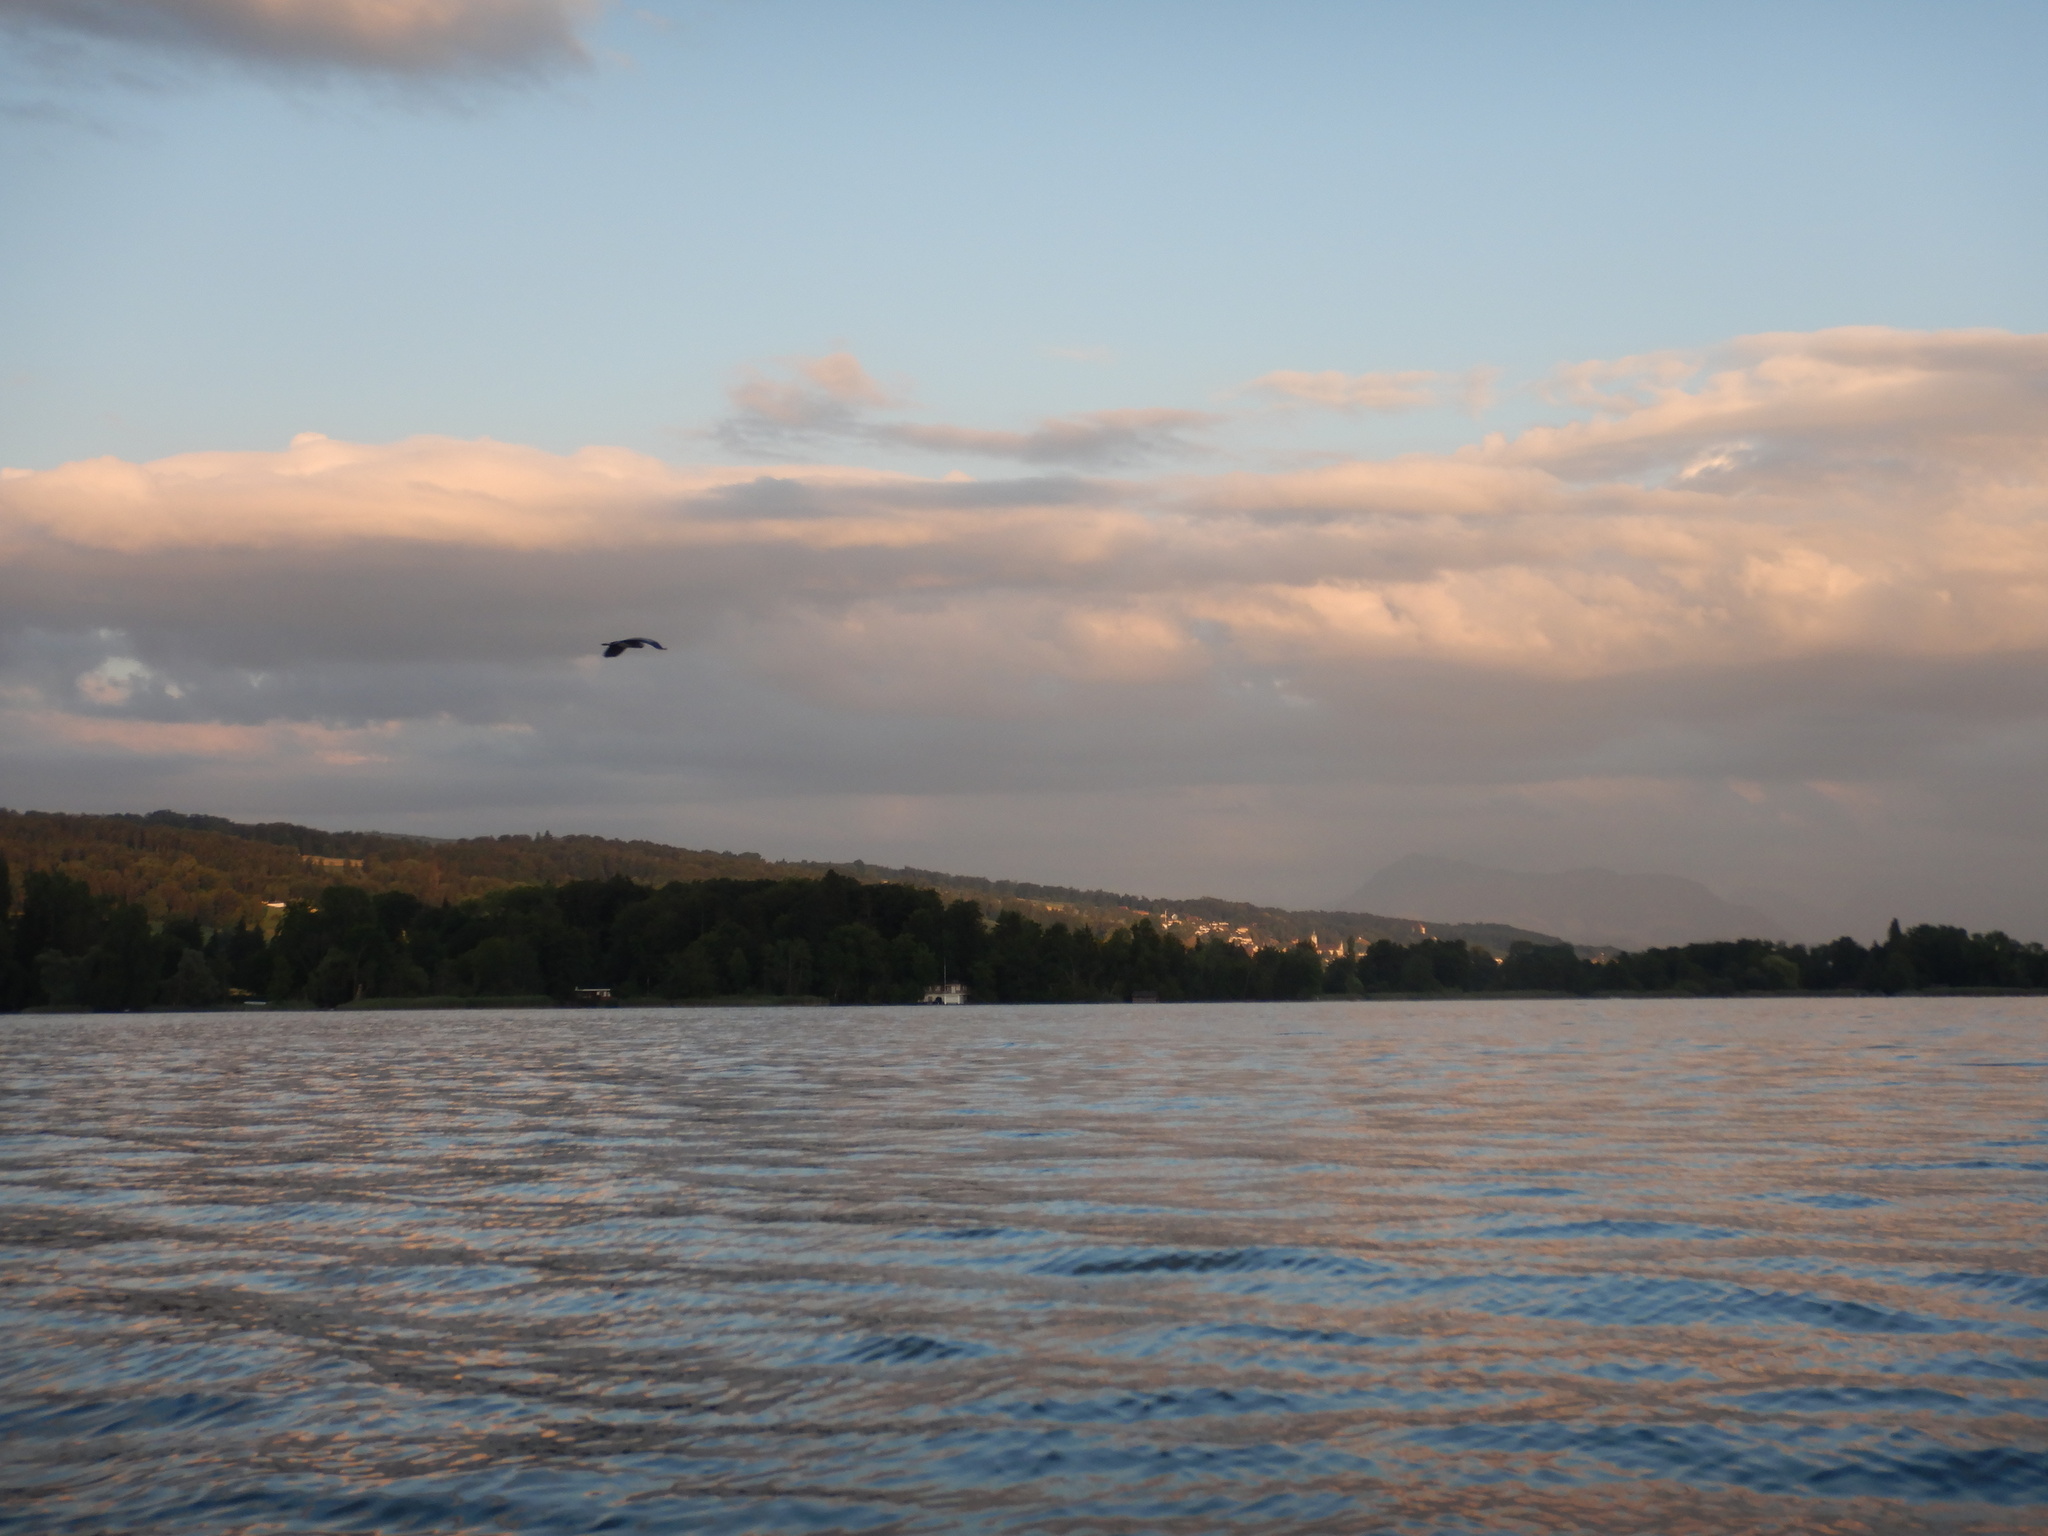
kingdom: Animalia
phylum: Chordata
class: Aves
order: Pelecaniformes
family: Ardeidae
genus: Ardea
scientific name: Ardea cinerea
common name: Grey heron
